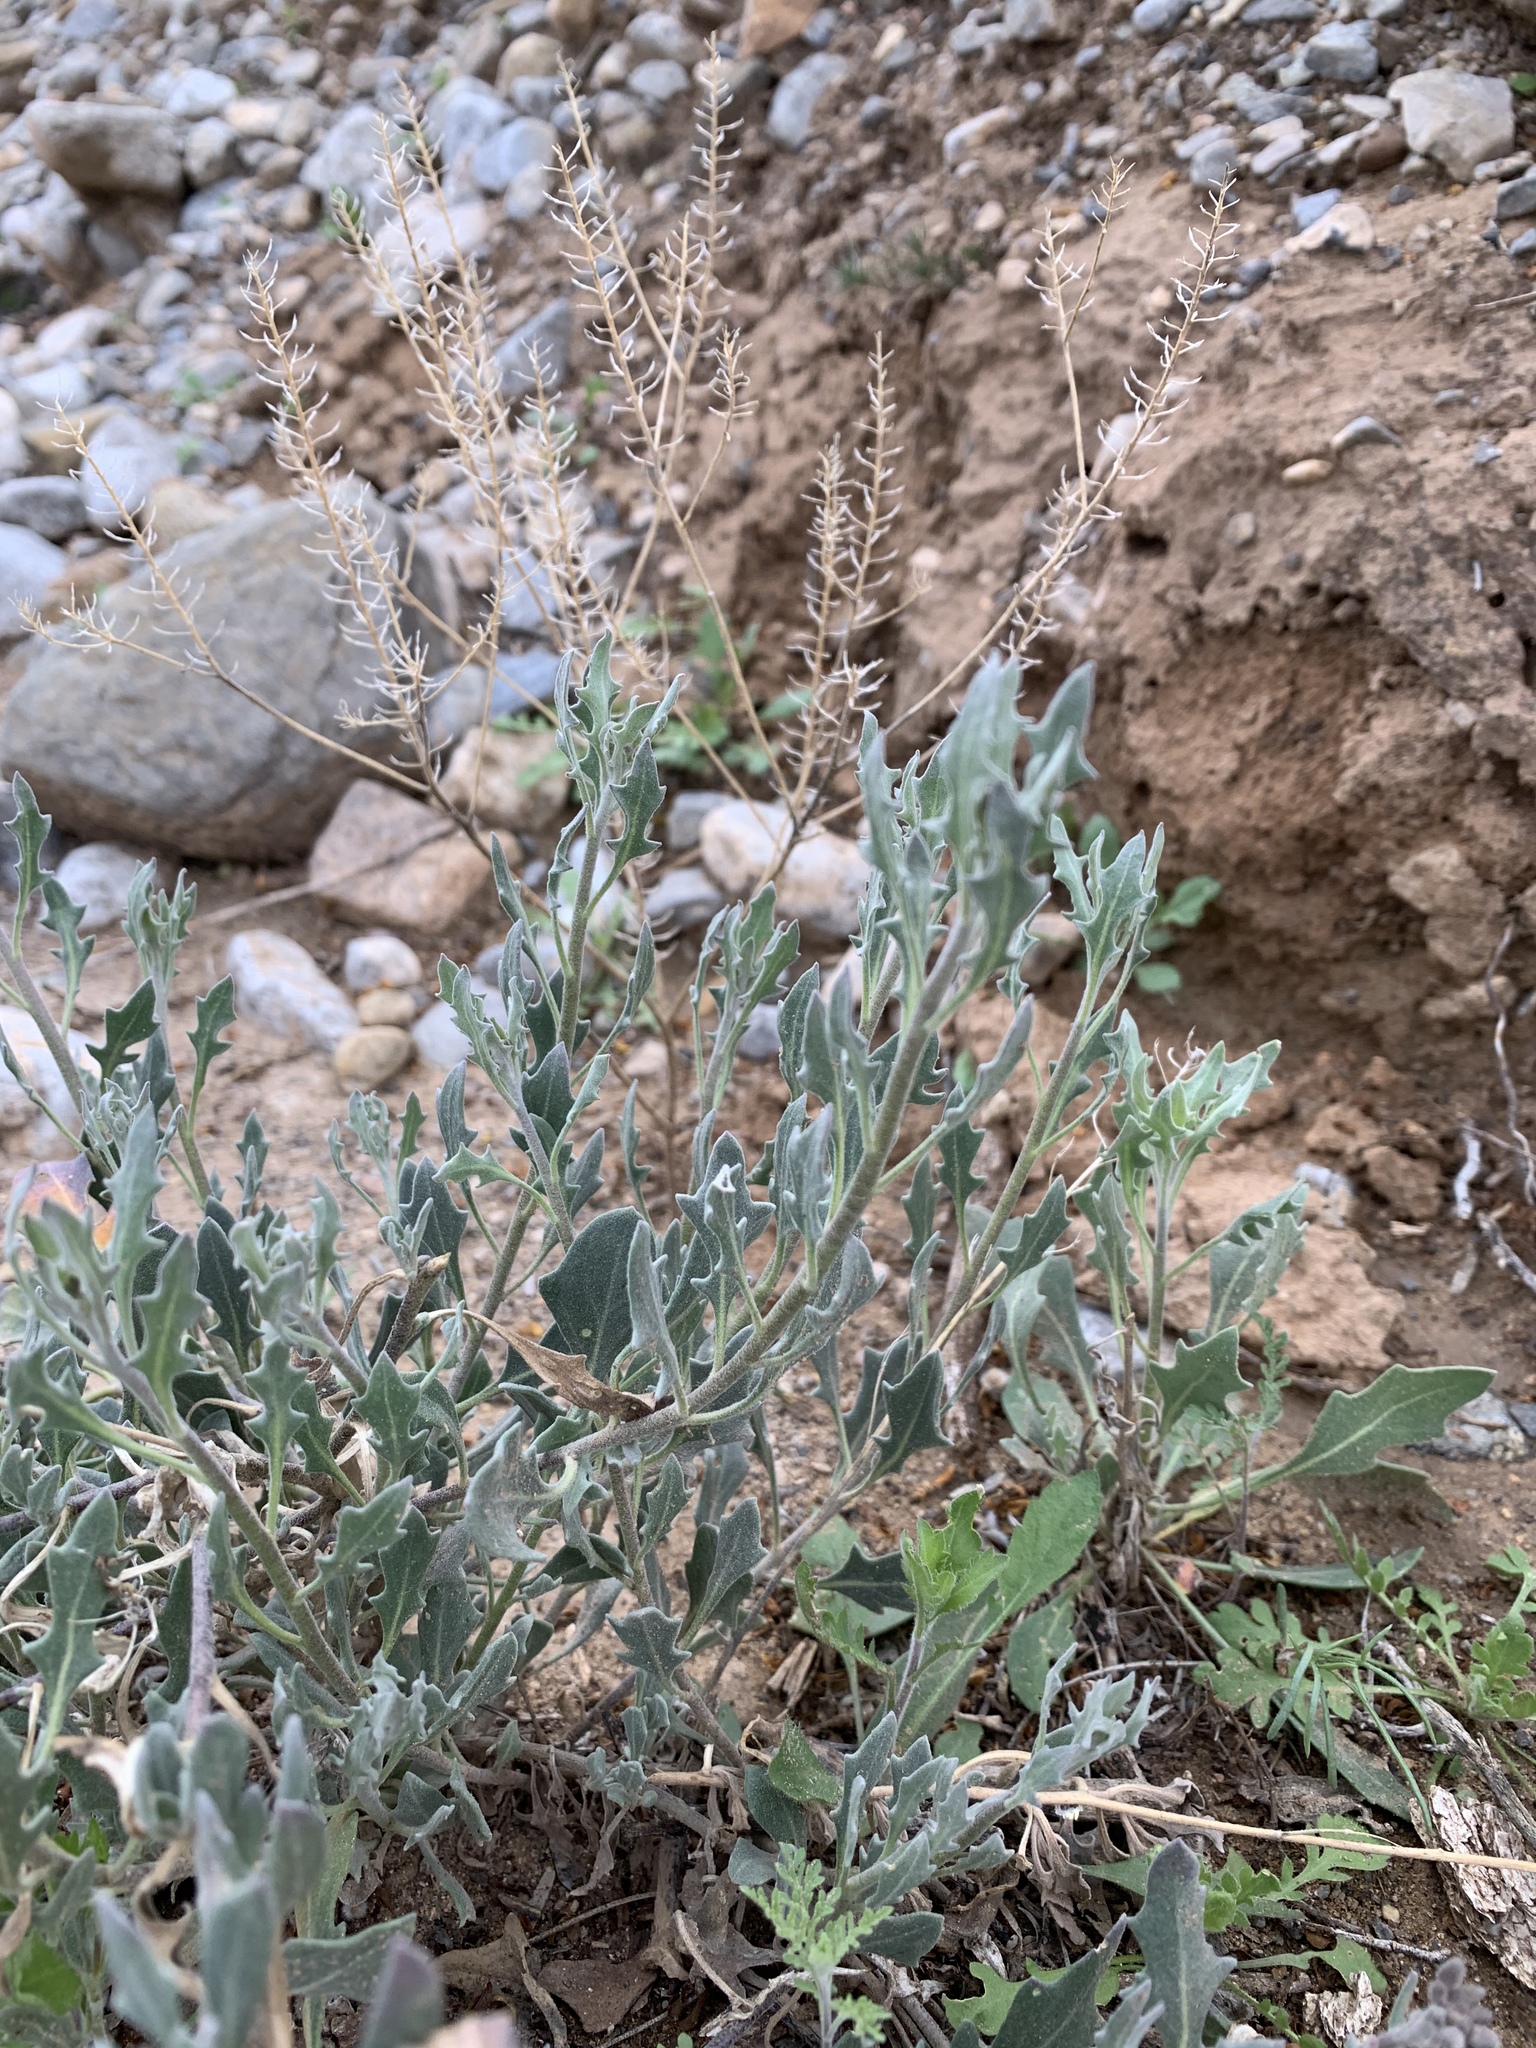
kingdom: Plantae
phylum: Tracheophyta
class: Magnoliopsida
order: Brassicales
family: Brassicaceae
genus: Nerisyrenia
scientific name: Nerisyrenia camporum
